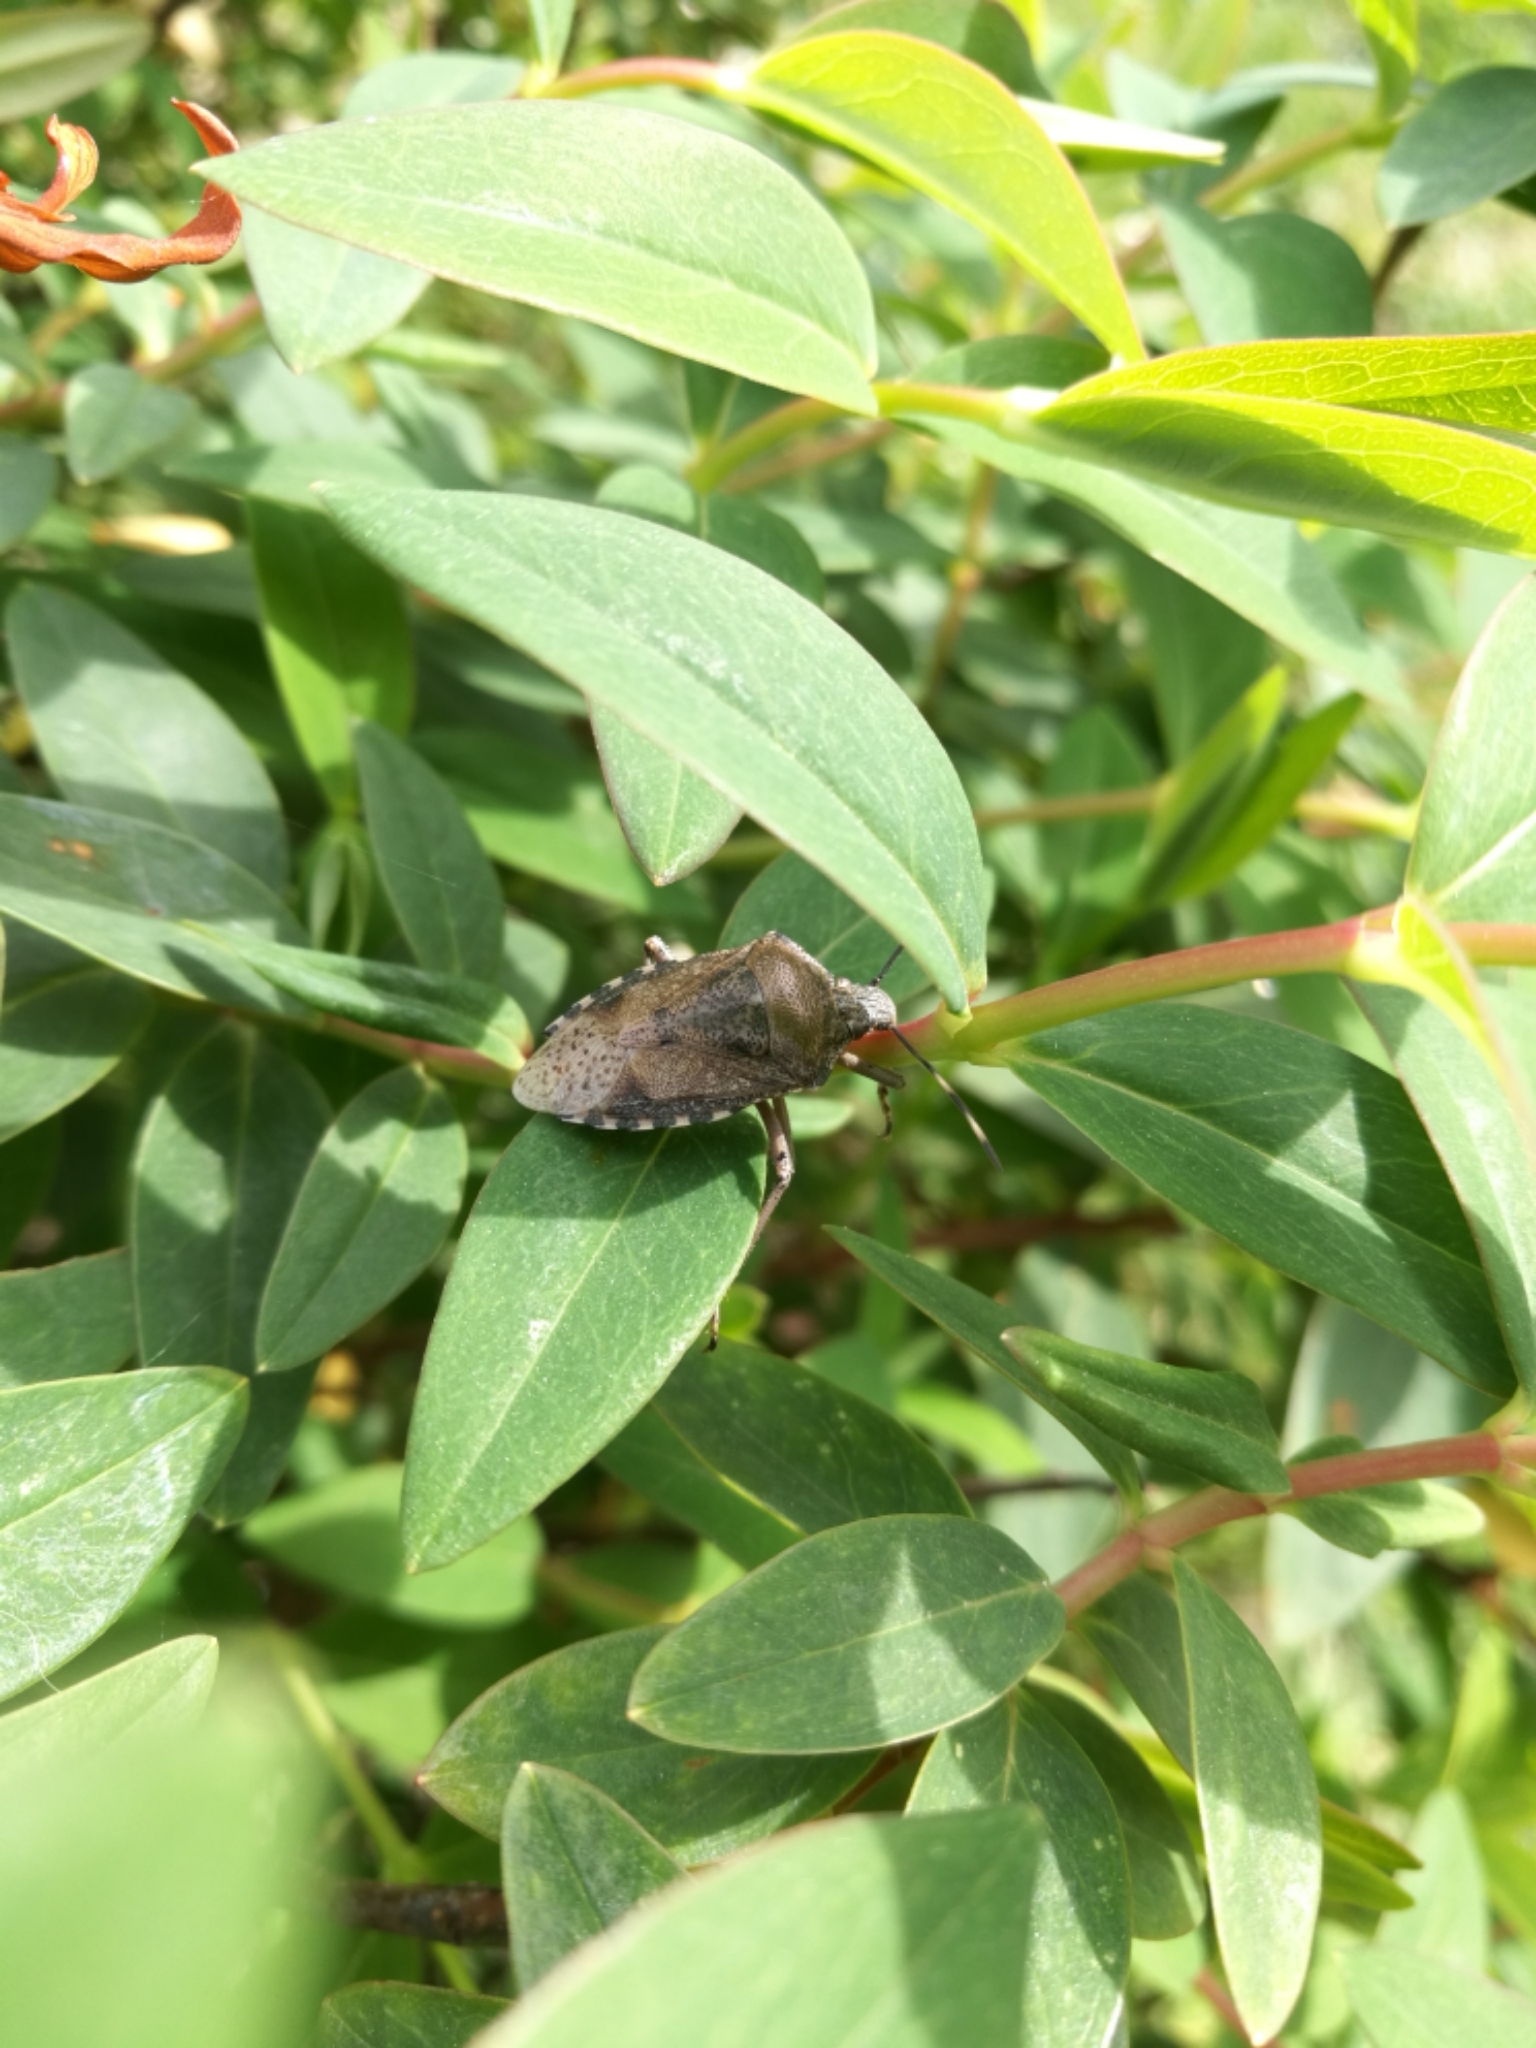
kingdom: Animalia
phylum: Arthropoda
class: Insecta
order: Hemiptera
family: Pentatomidae
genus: Rhaphigaster
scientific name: Rhaphigaster nebulosa
